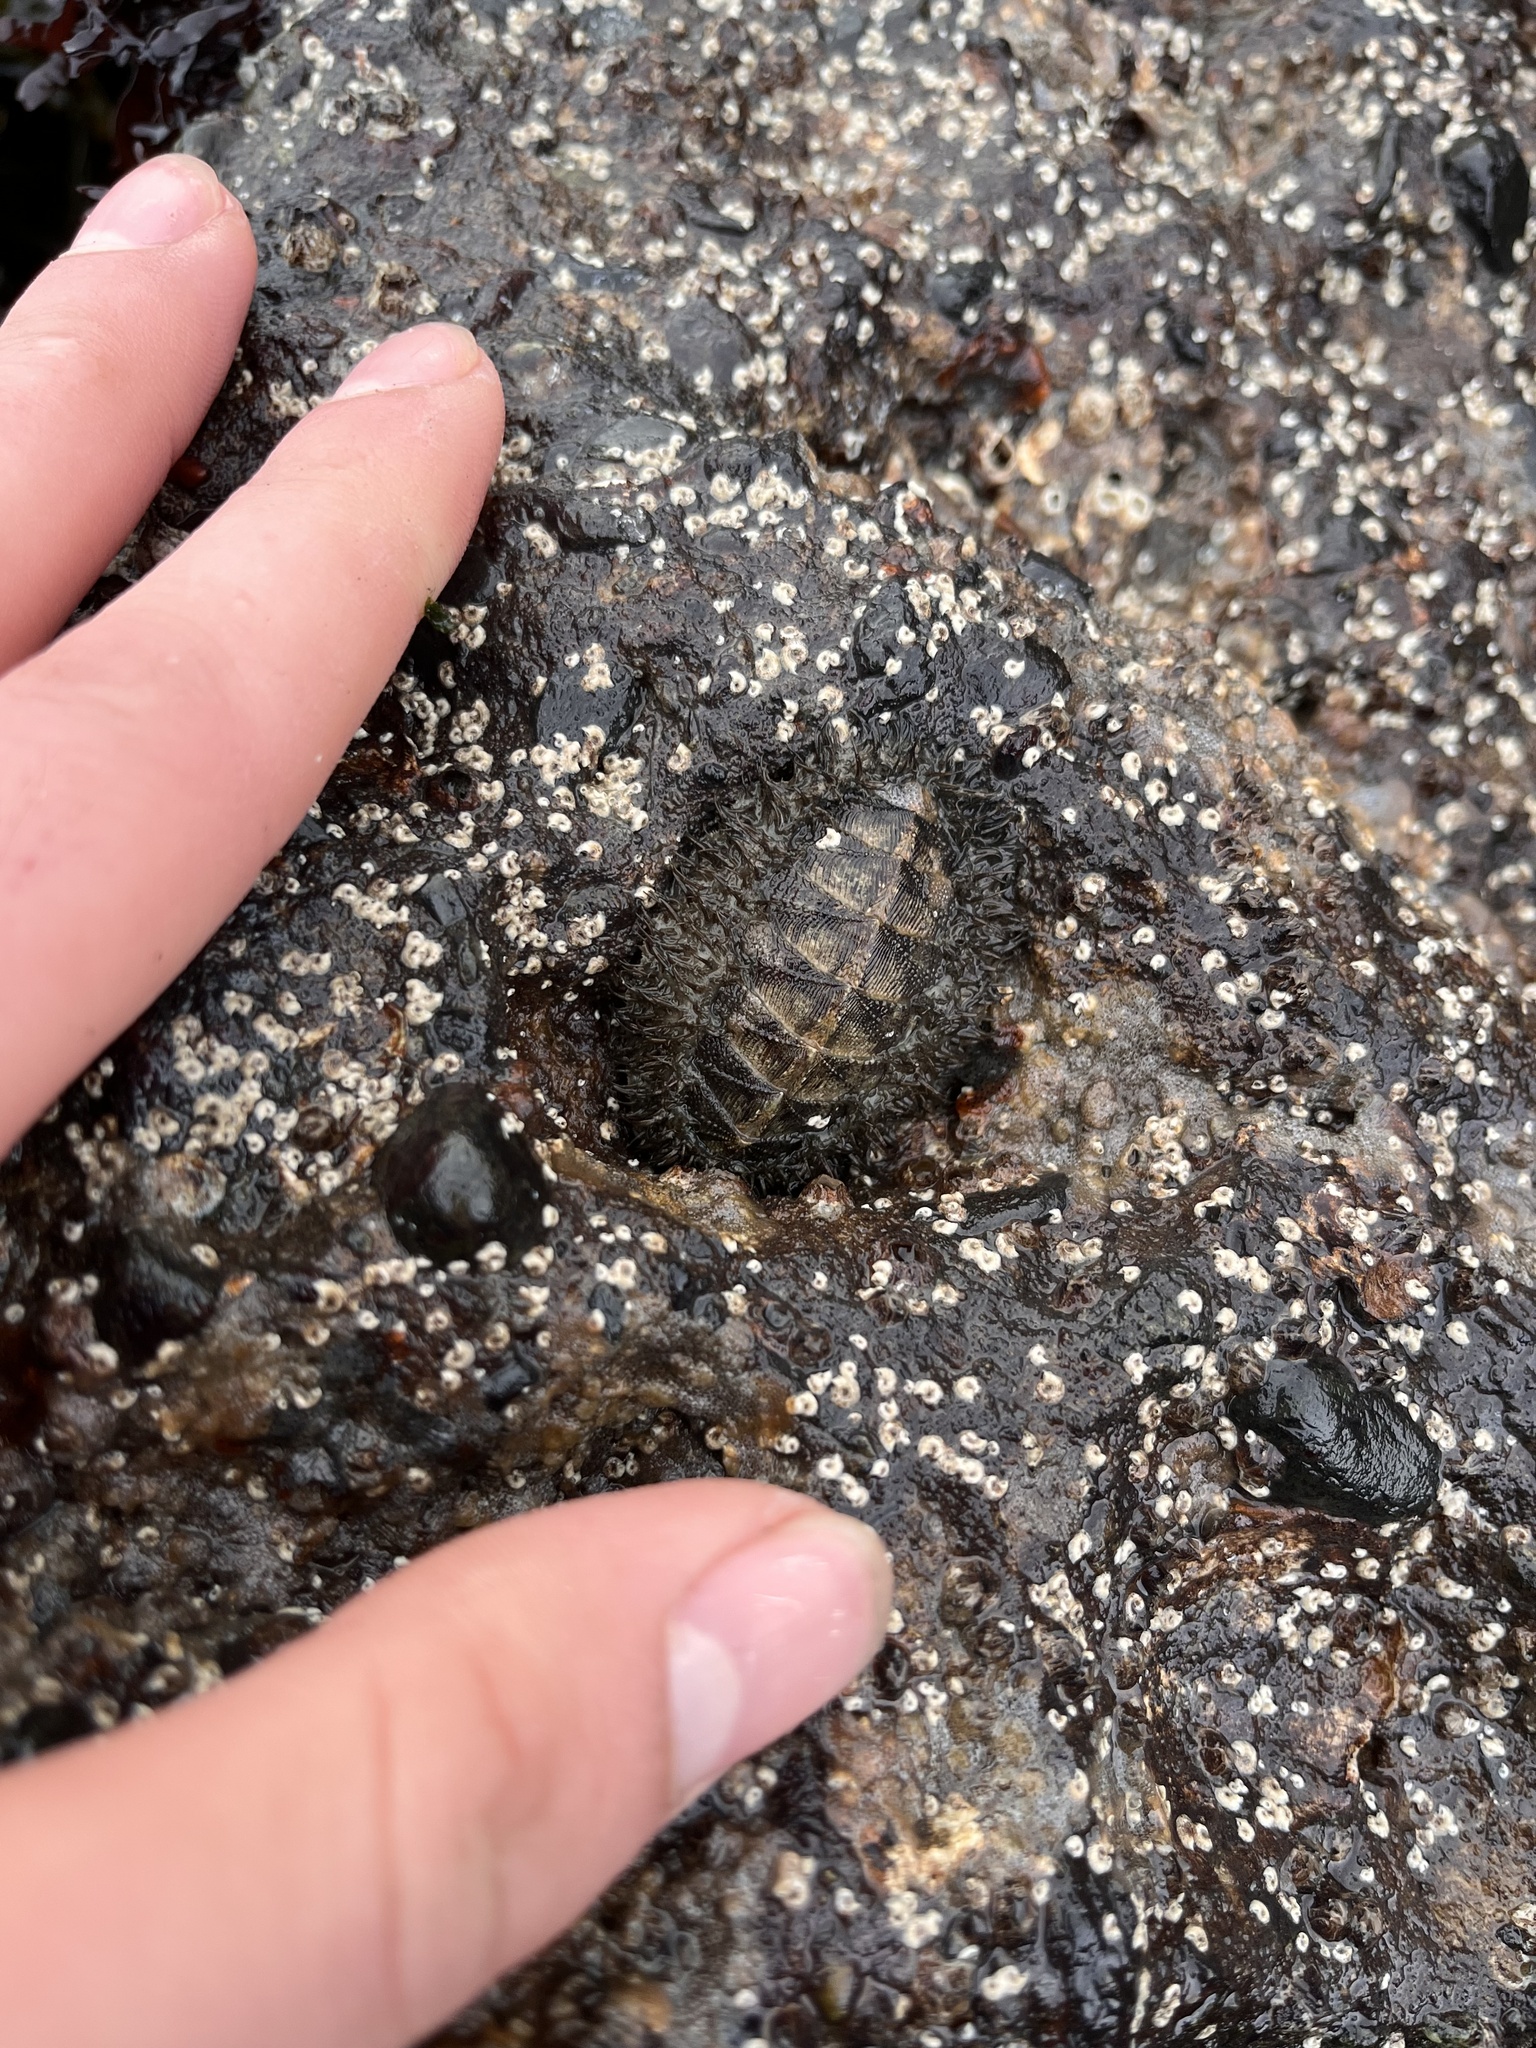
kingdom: Animalia
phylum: Mollusca
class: Polyplacophora
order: Chitonida
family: Mopaliidae
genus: Mopalia
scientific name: Mopalia muscosa
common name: Mossy chiton
